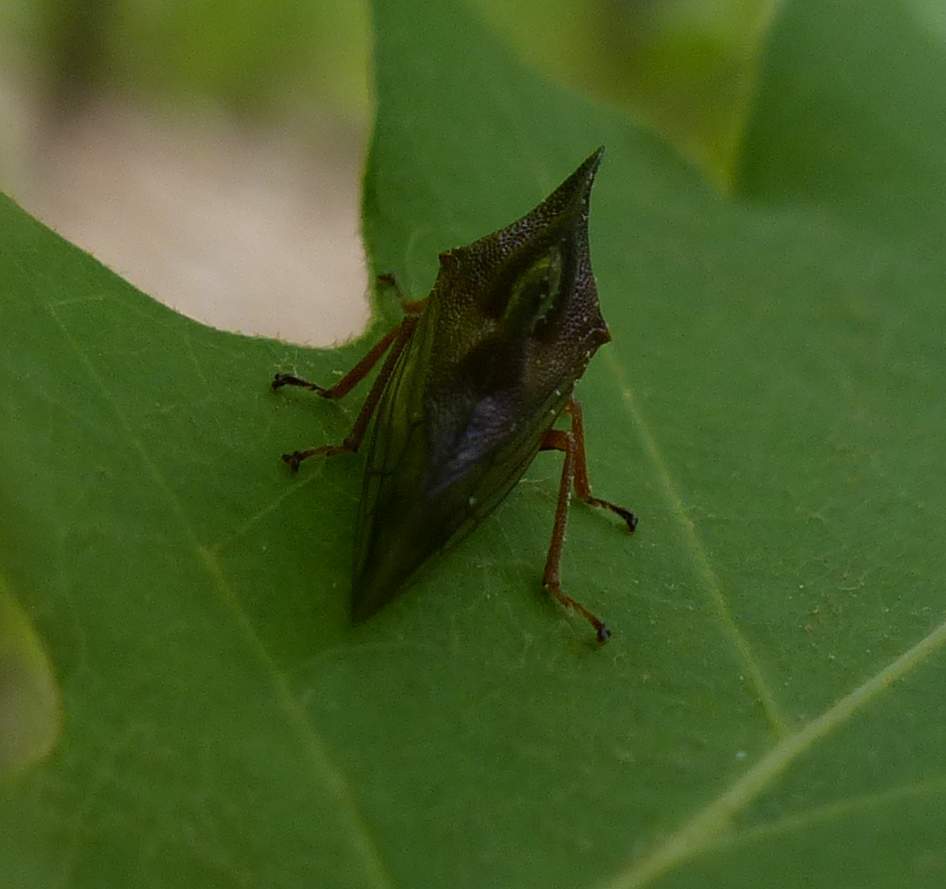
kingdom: Animalia
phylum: Arthropoda
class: Insecta
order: Hemiptera
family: Membracidae
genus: Smilia
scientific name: Smilia camelus
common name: Camel treehopper
